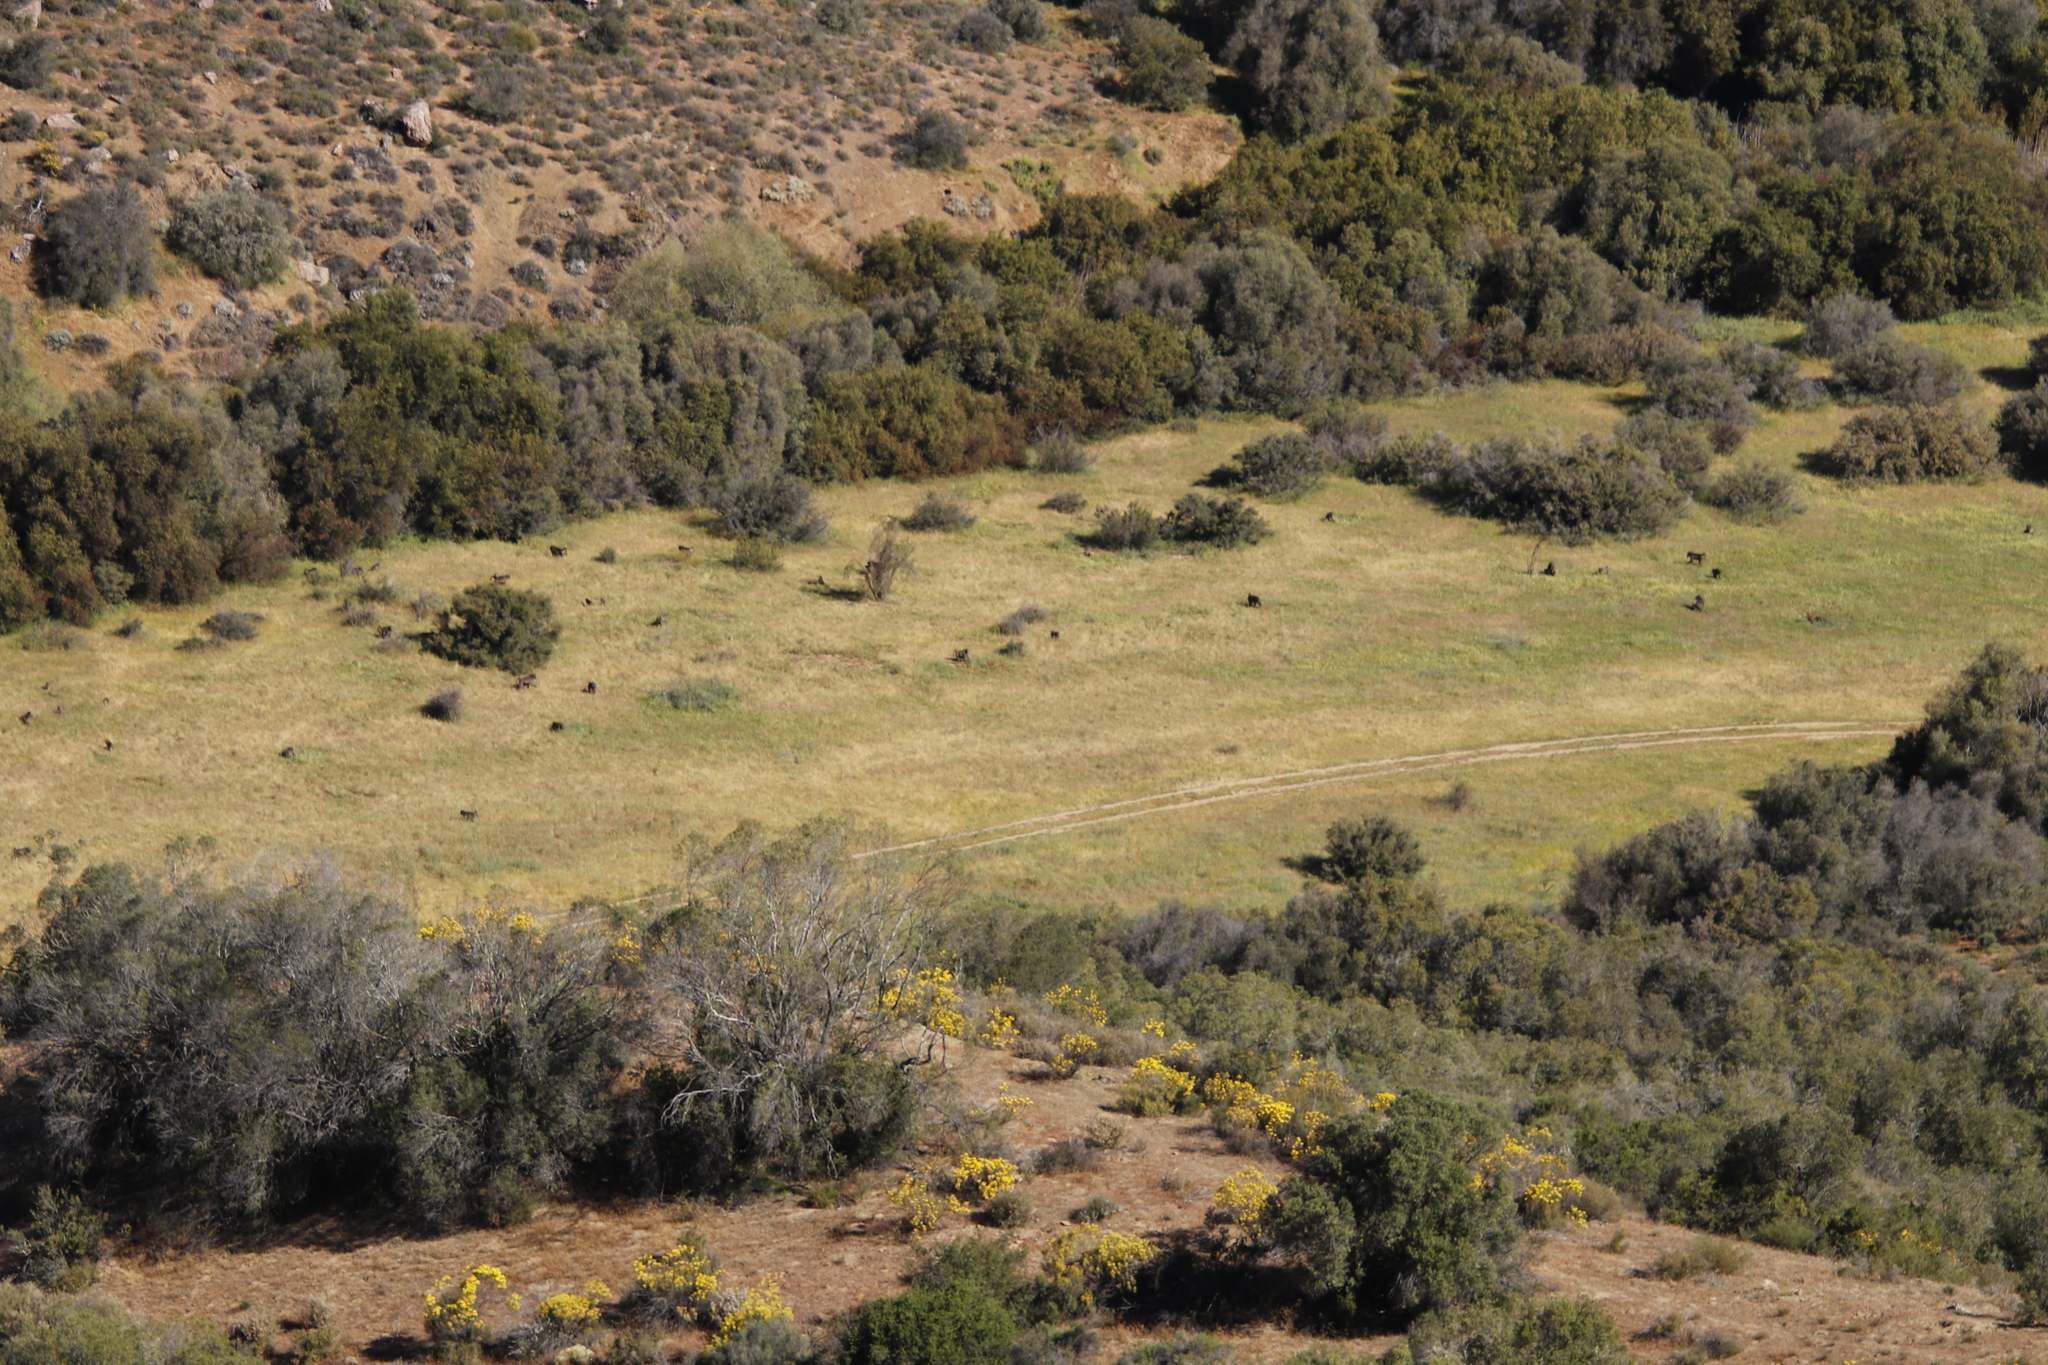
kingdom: Animalia
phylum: Chordata
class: Mammalia
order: Primates
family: Cercopithecidae
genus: Papio
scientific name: Papio ursinus
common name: Chacma baboon
